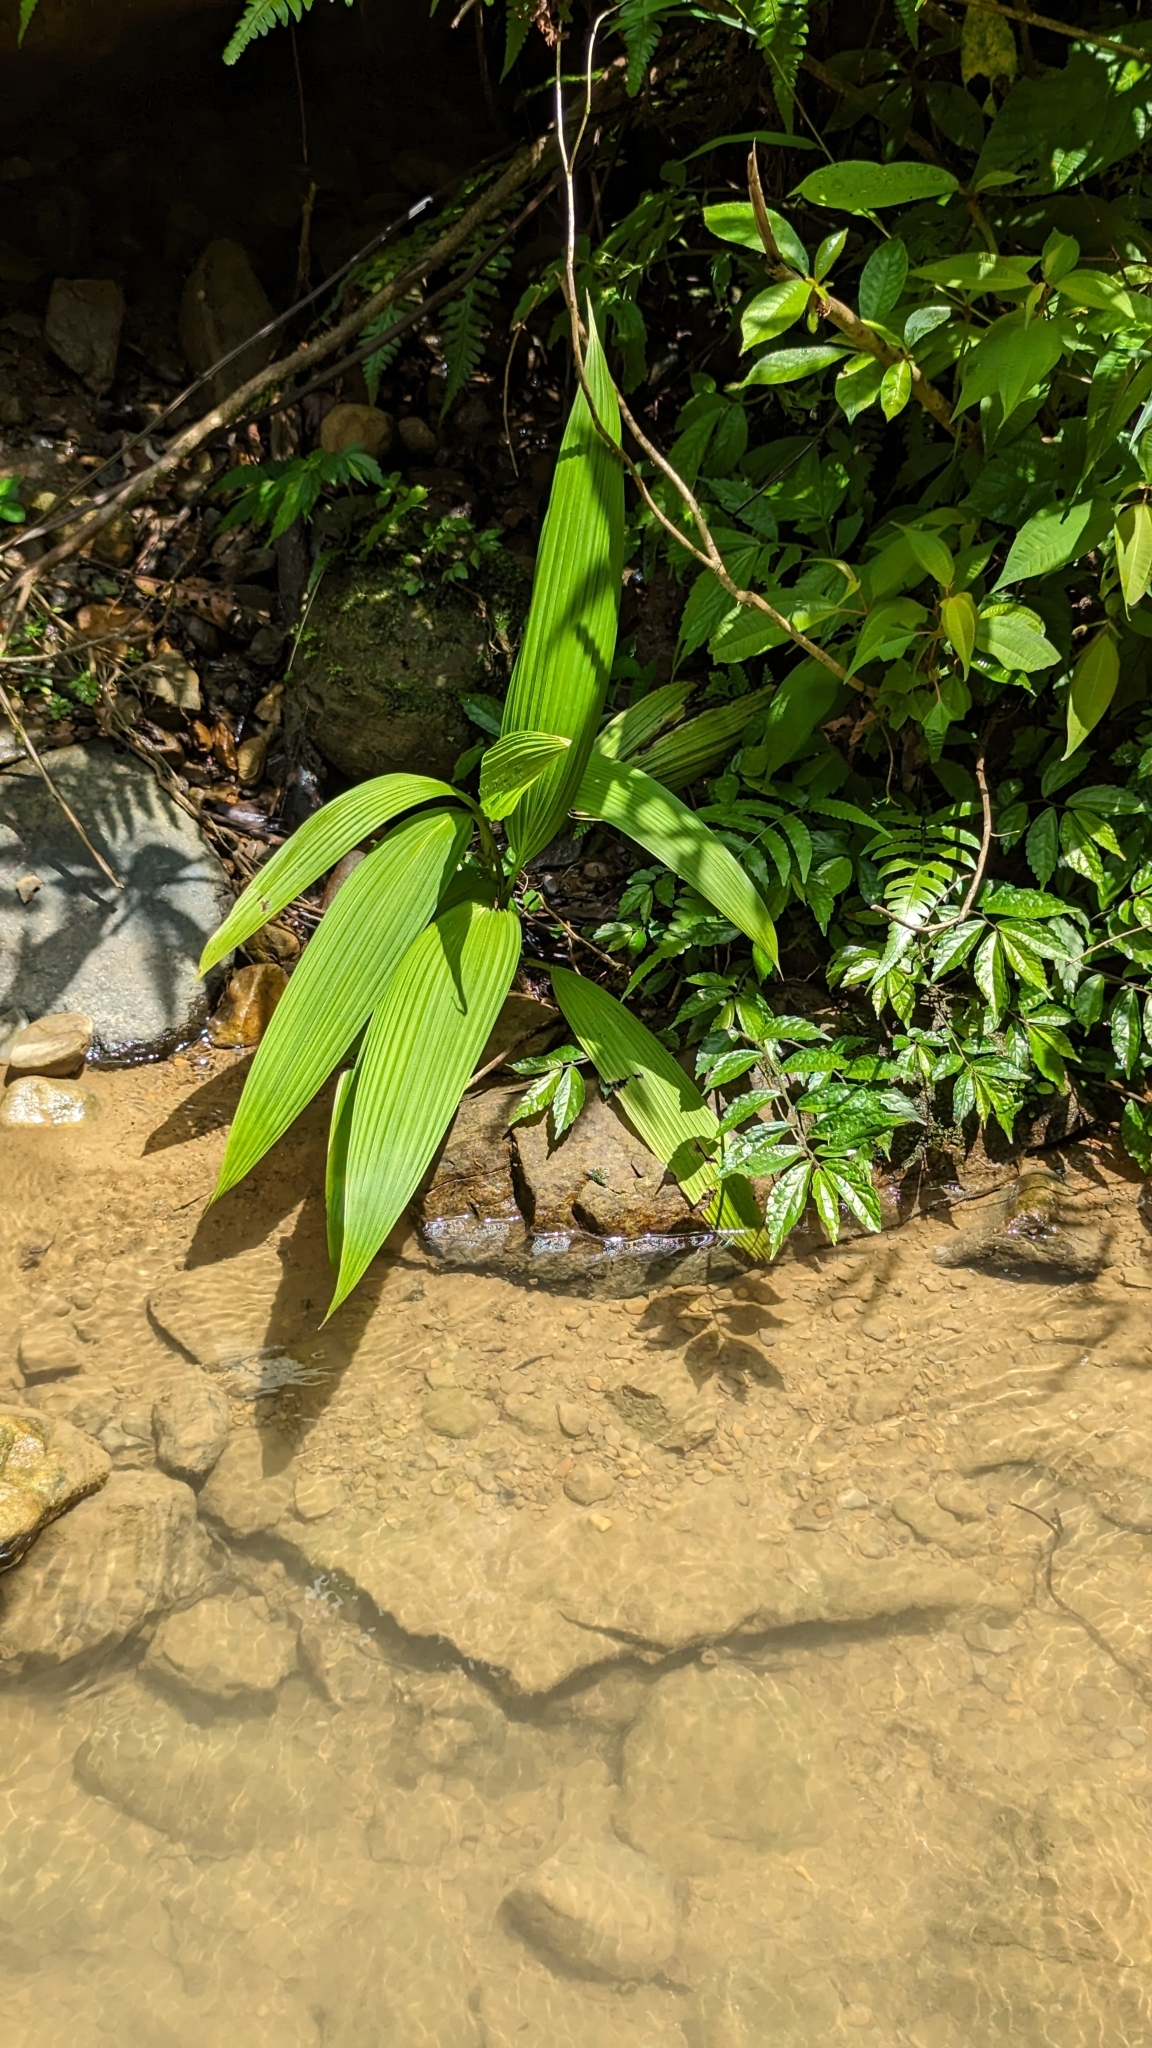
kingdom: Plantae
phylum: Tracheophyta
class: Liliopsida
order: Asparagales
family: Hypoxidaceae
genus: Curculigo
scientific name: Curculigo capitulata
